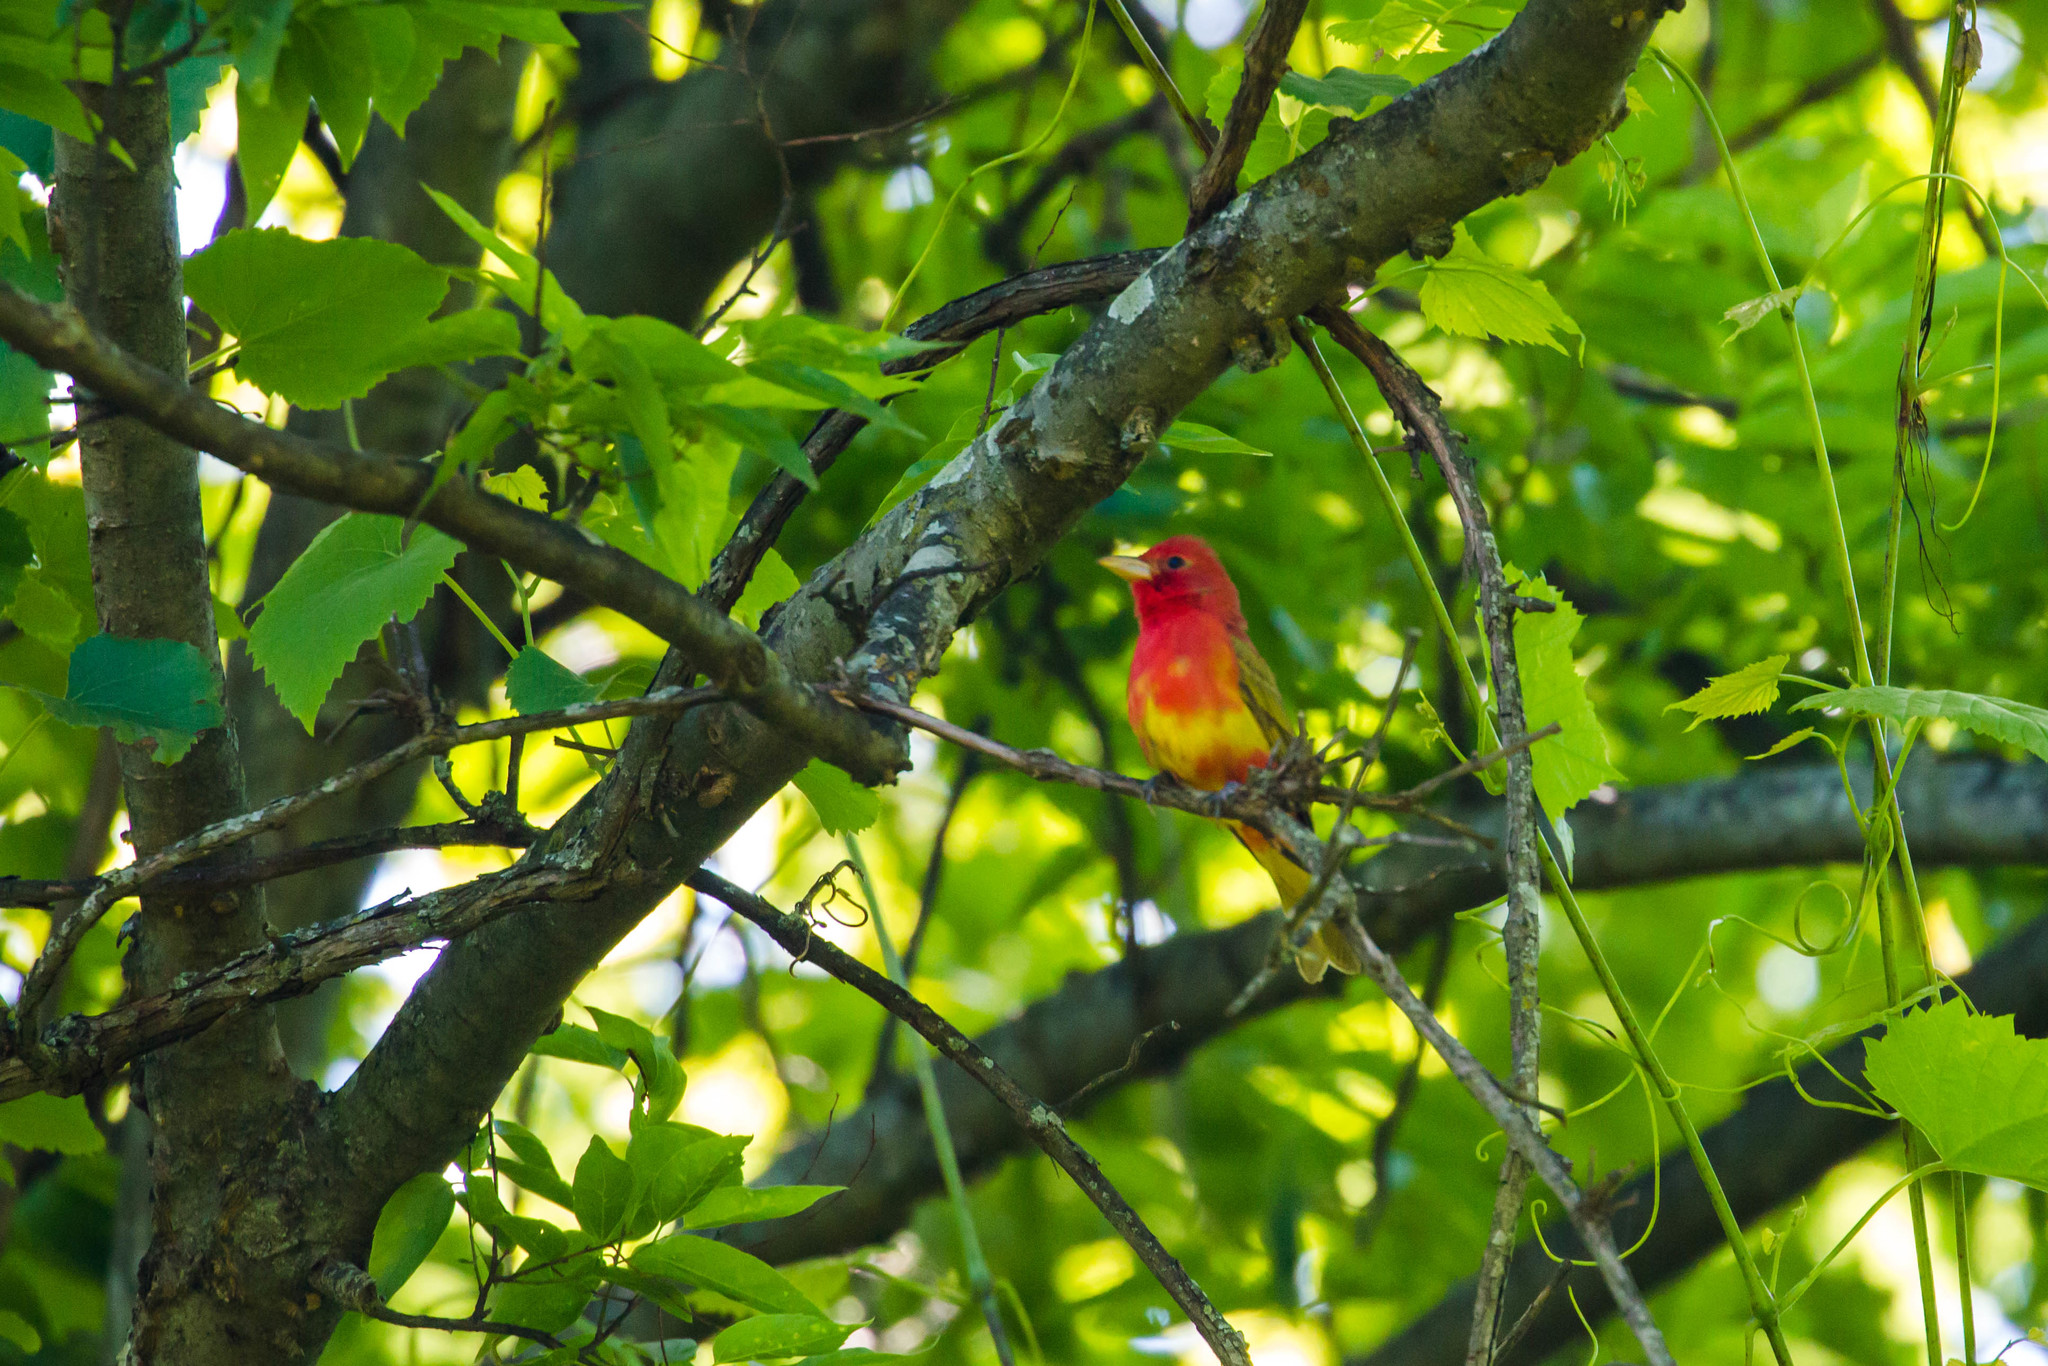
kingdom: Animalia
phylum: Chordata
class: Aves
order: Passeriformes
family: Cardinalidae
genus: Piranga
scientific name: Piranga rubra
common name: Summer tanager
